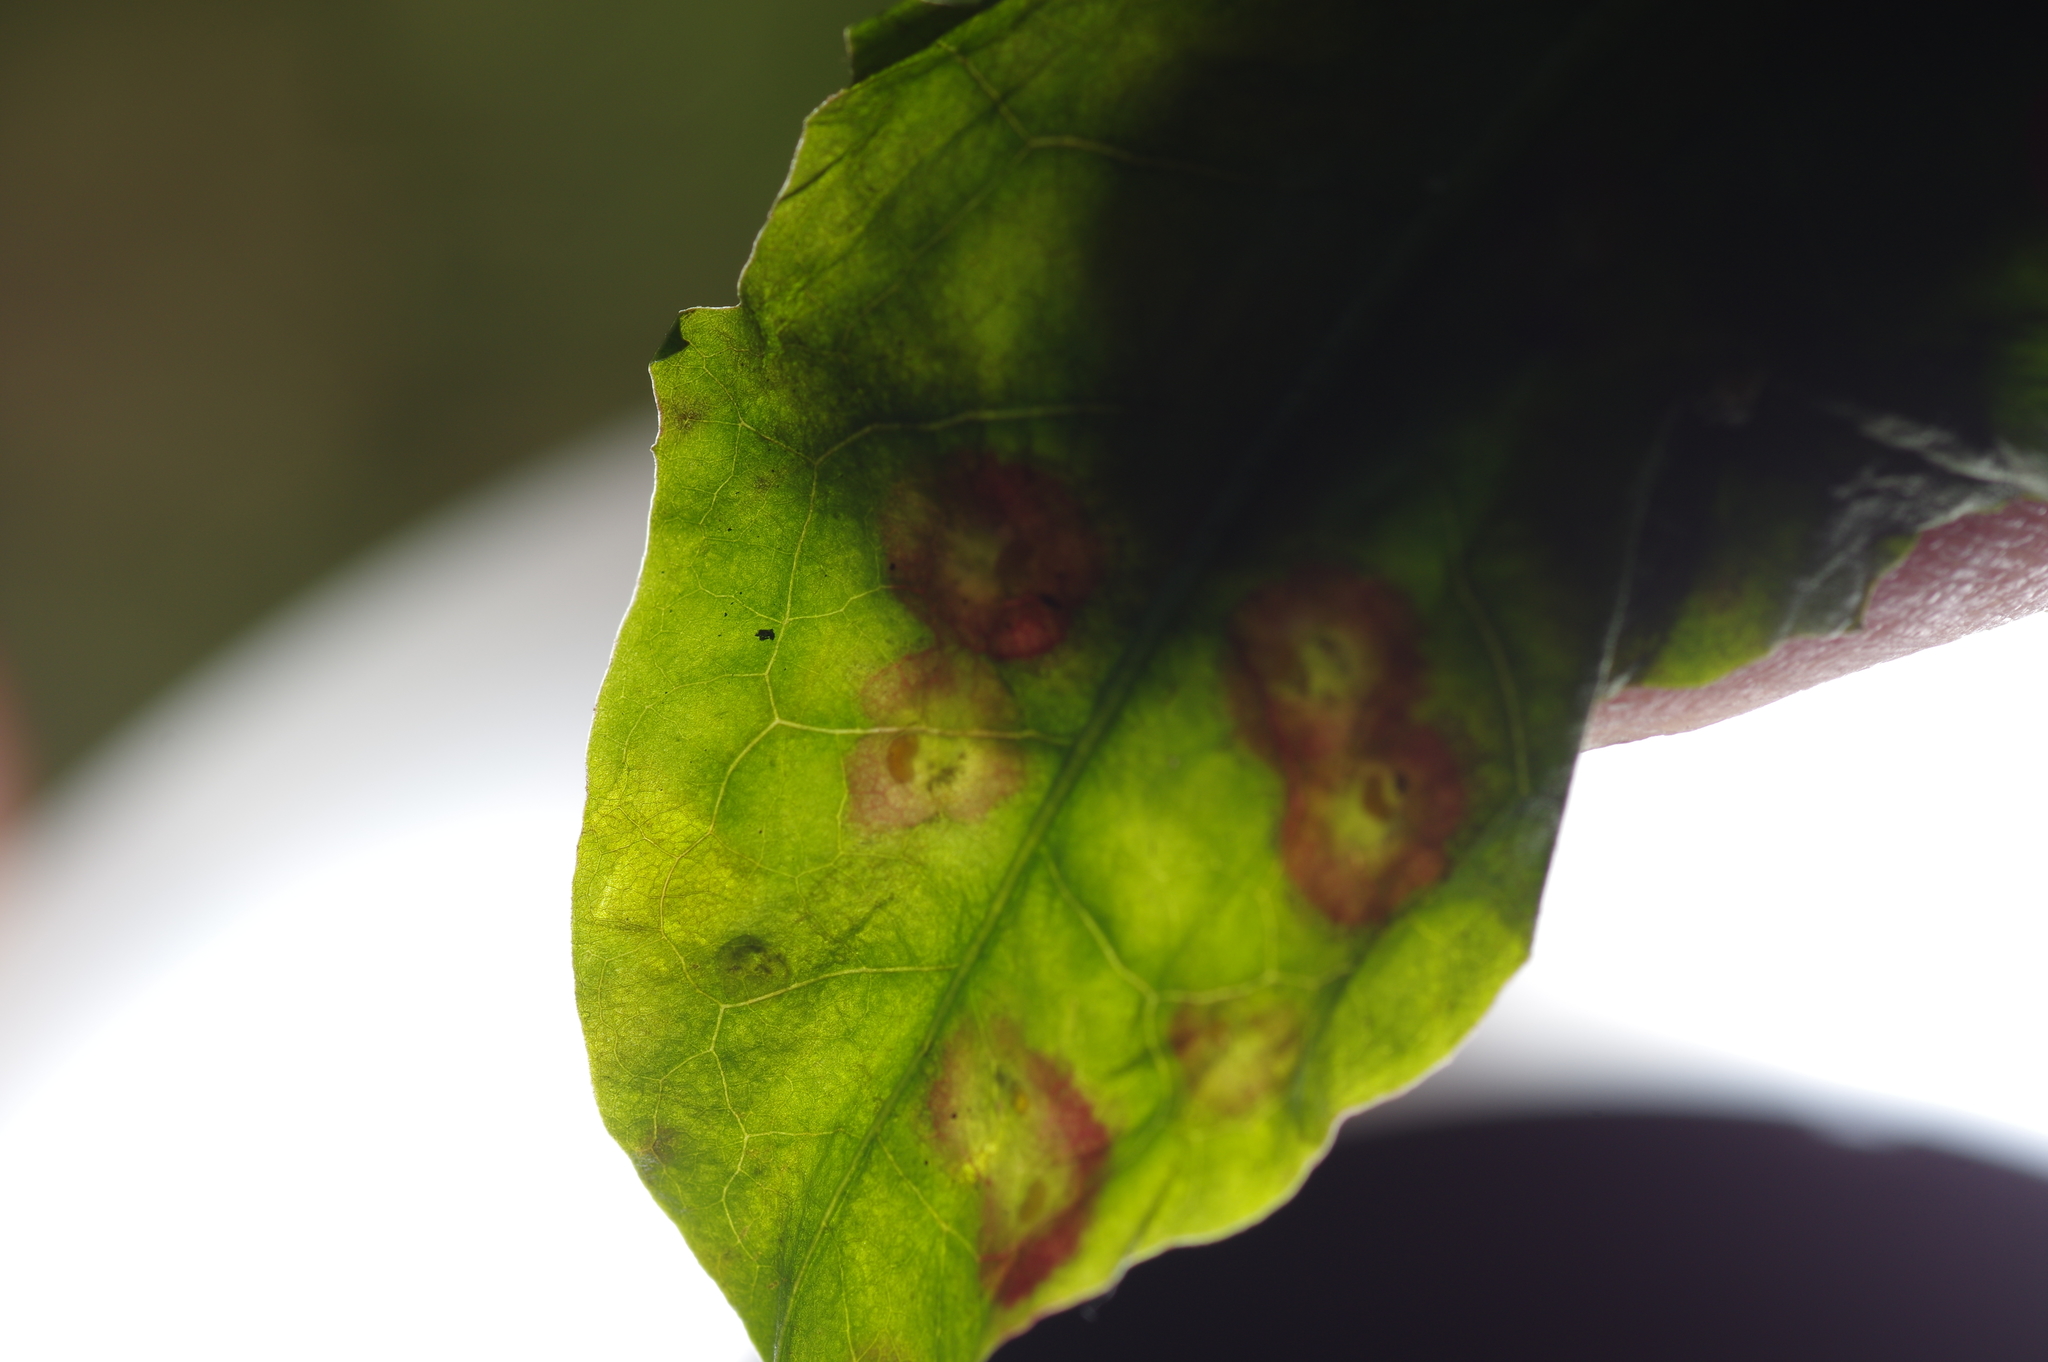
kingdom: Animalia
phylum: Arthropoda
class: Insecta
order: Diptera
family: Cecidomyiidae
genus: Cystiphora
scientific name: Cystiphora taraxaci
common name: Biting midge
